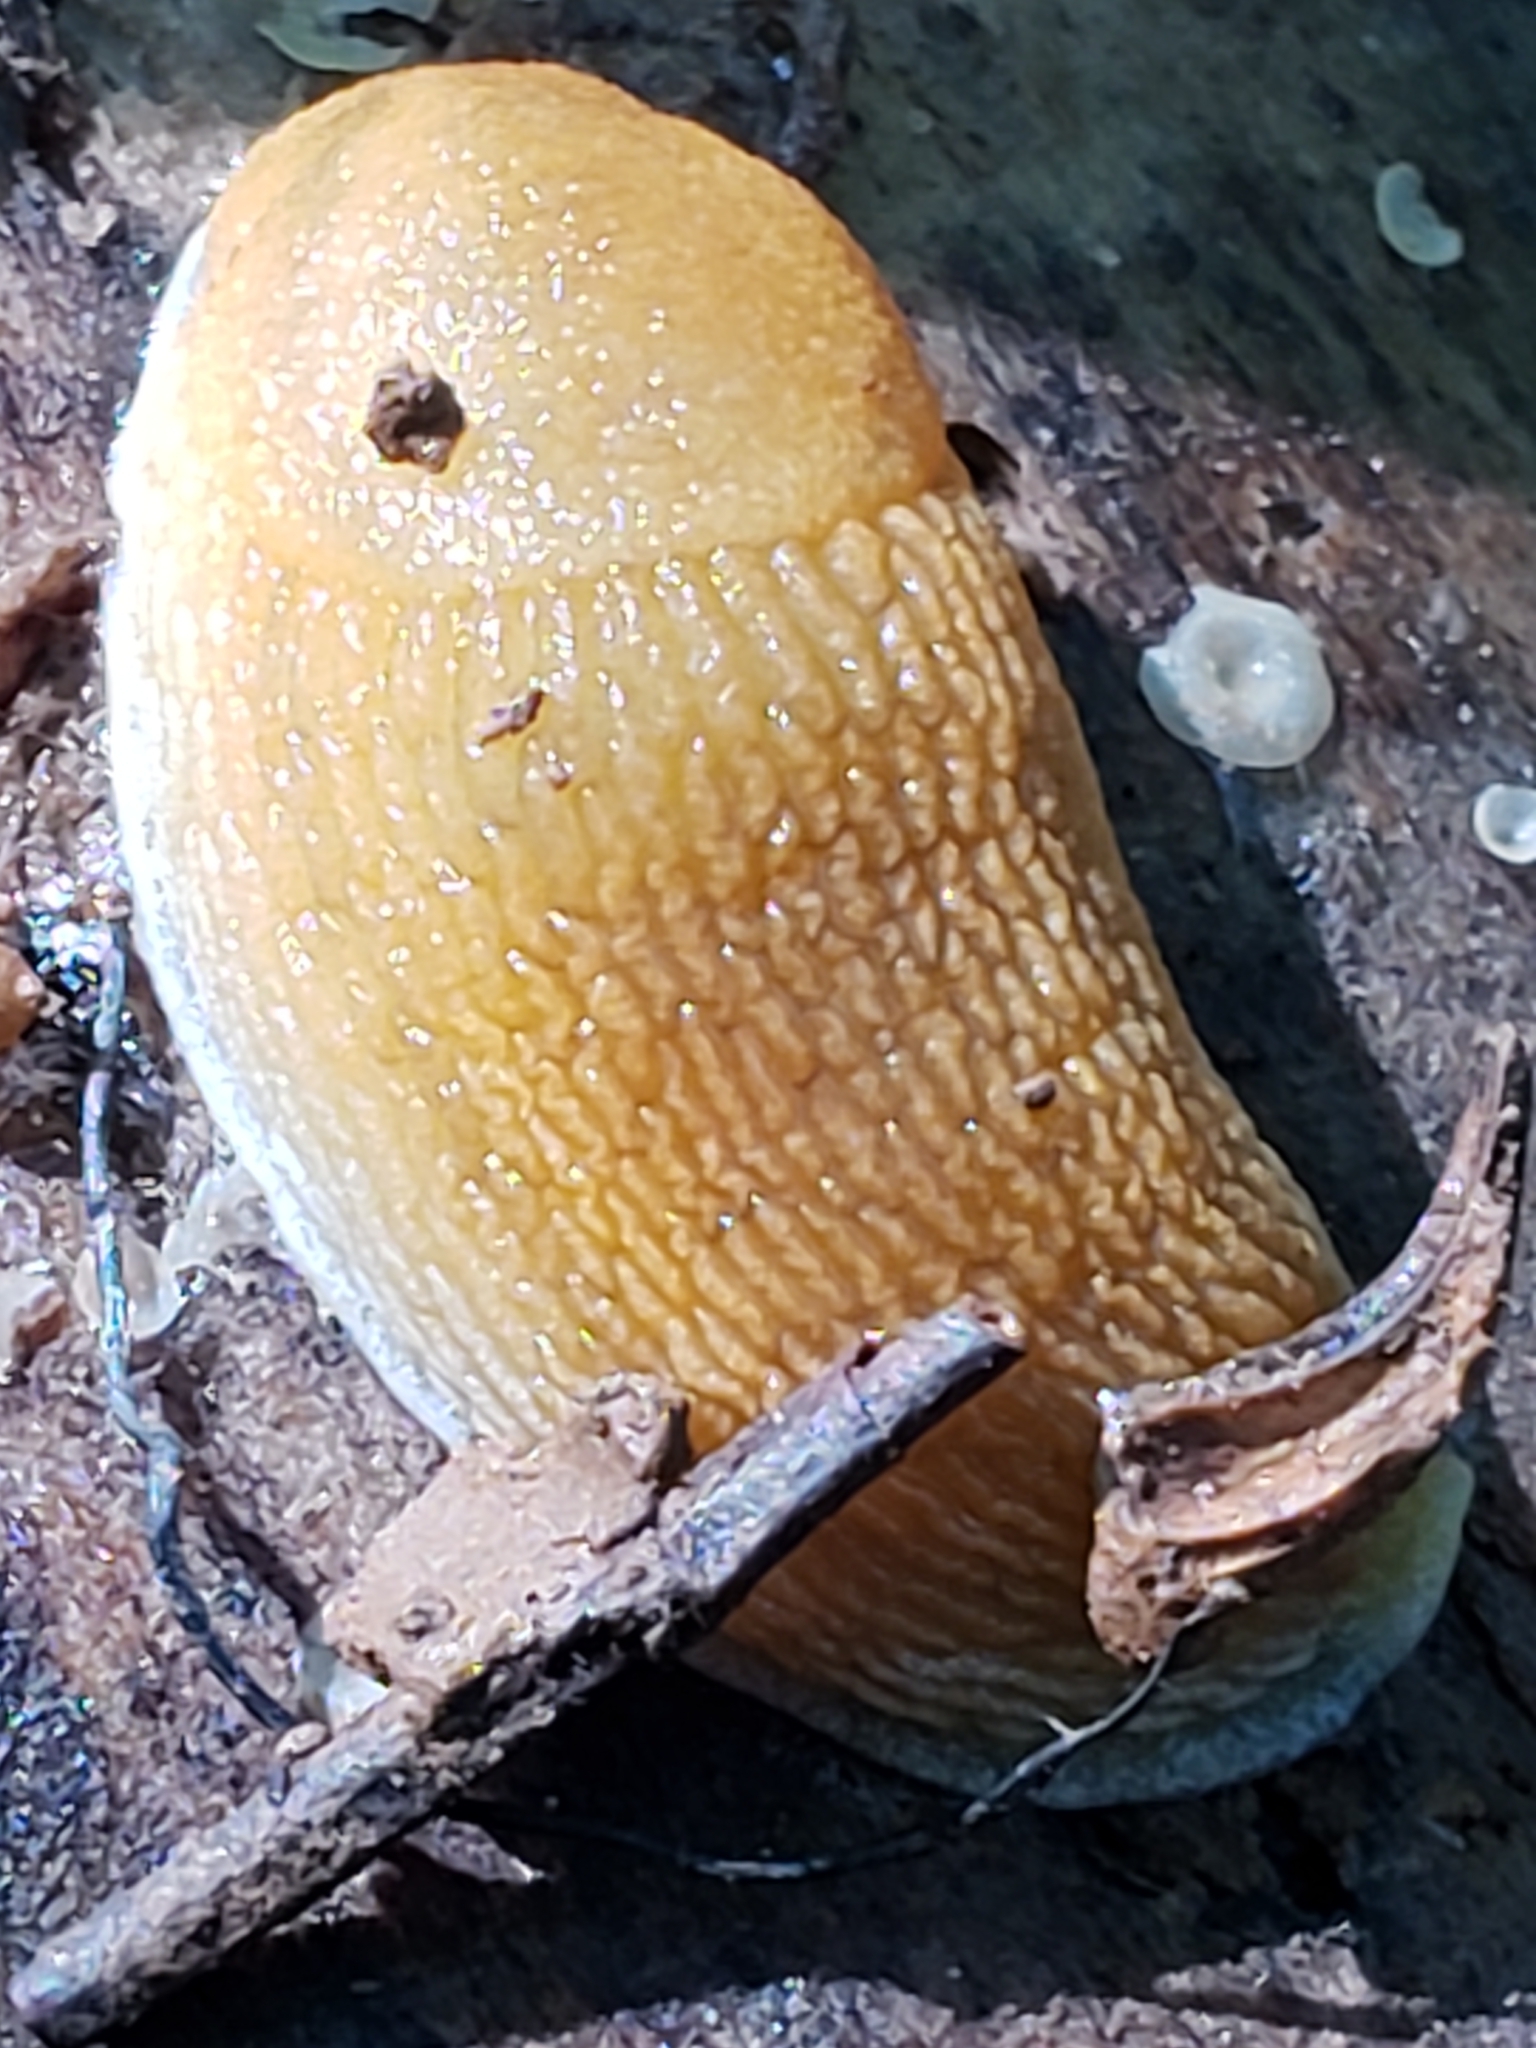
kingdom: Animalia
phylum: Mollusca
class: Gastropoda
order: Stylommatophora
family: Arionidae
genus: Arion
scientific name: Arion subfuscus
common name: Dusky arion
